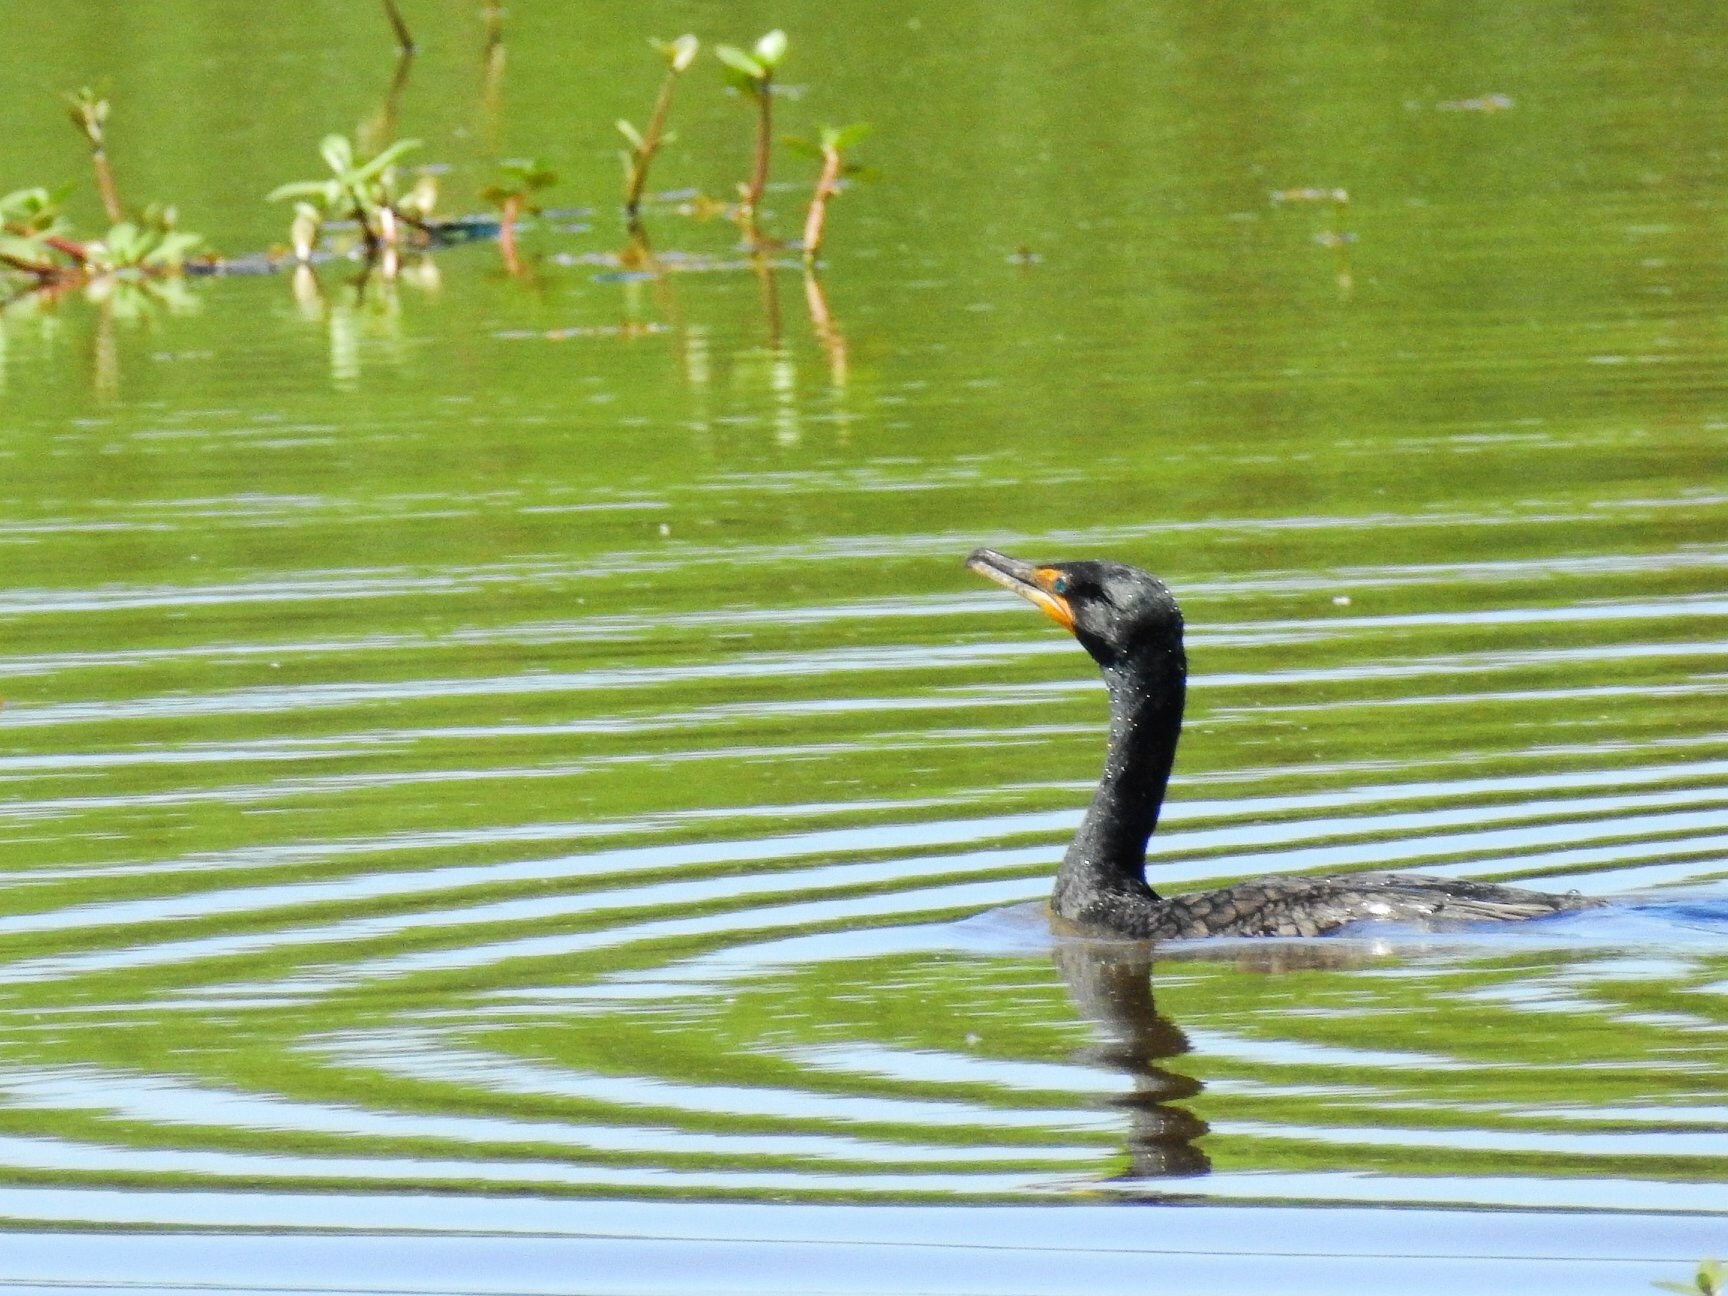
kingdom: Animalia
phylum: Chordata
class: Aves
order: Suliformes
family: Phalacrocoracidae
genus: Phalacrocorax
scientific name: Phalacrocorax auritus
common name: Double-crested cormorant
